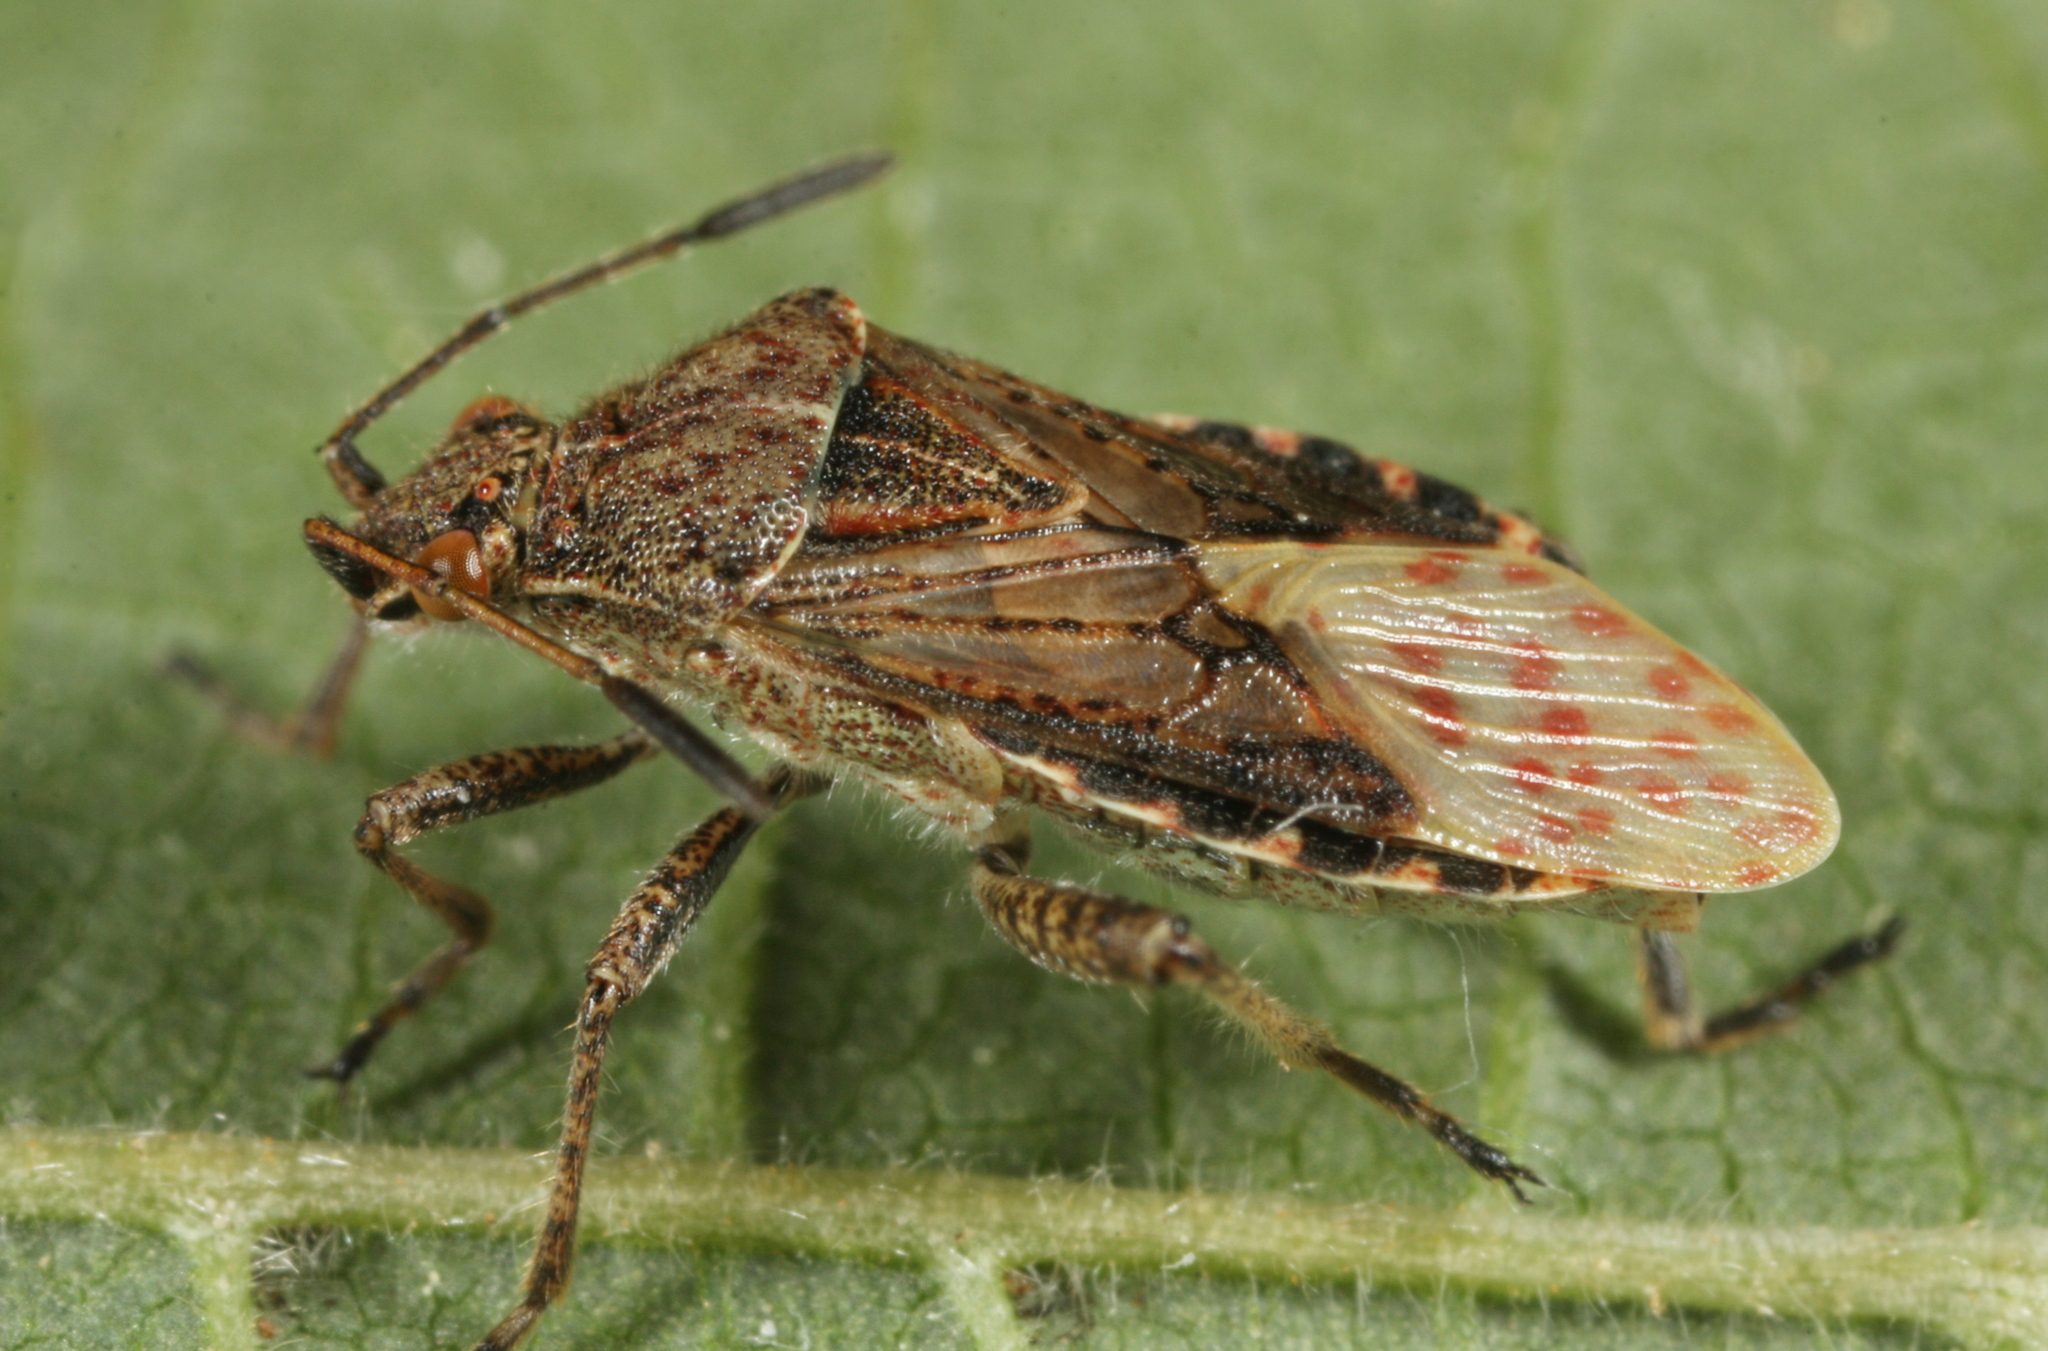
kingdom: Animalia
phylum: Arthropoda
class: Insecta
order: Hemiptera
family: Rhopalidae
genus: Stictopleurus
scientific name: Stictopleurus punctatonervosus
